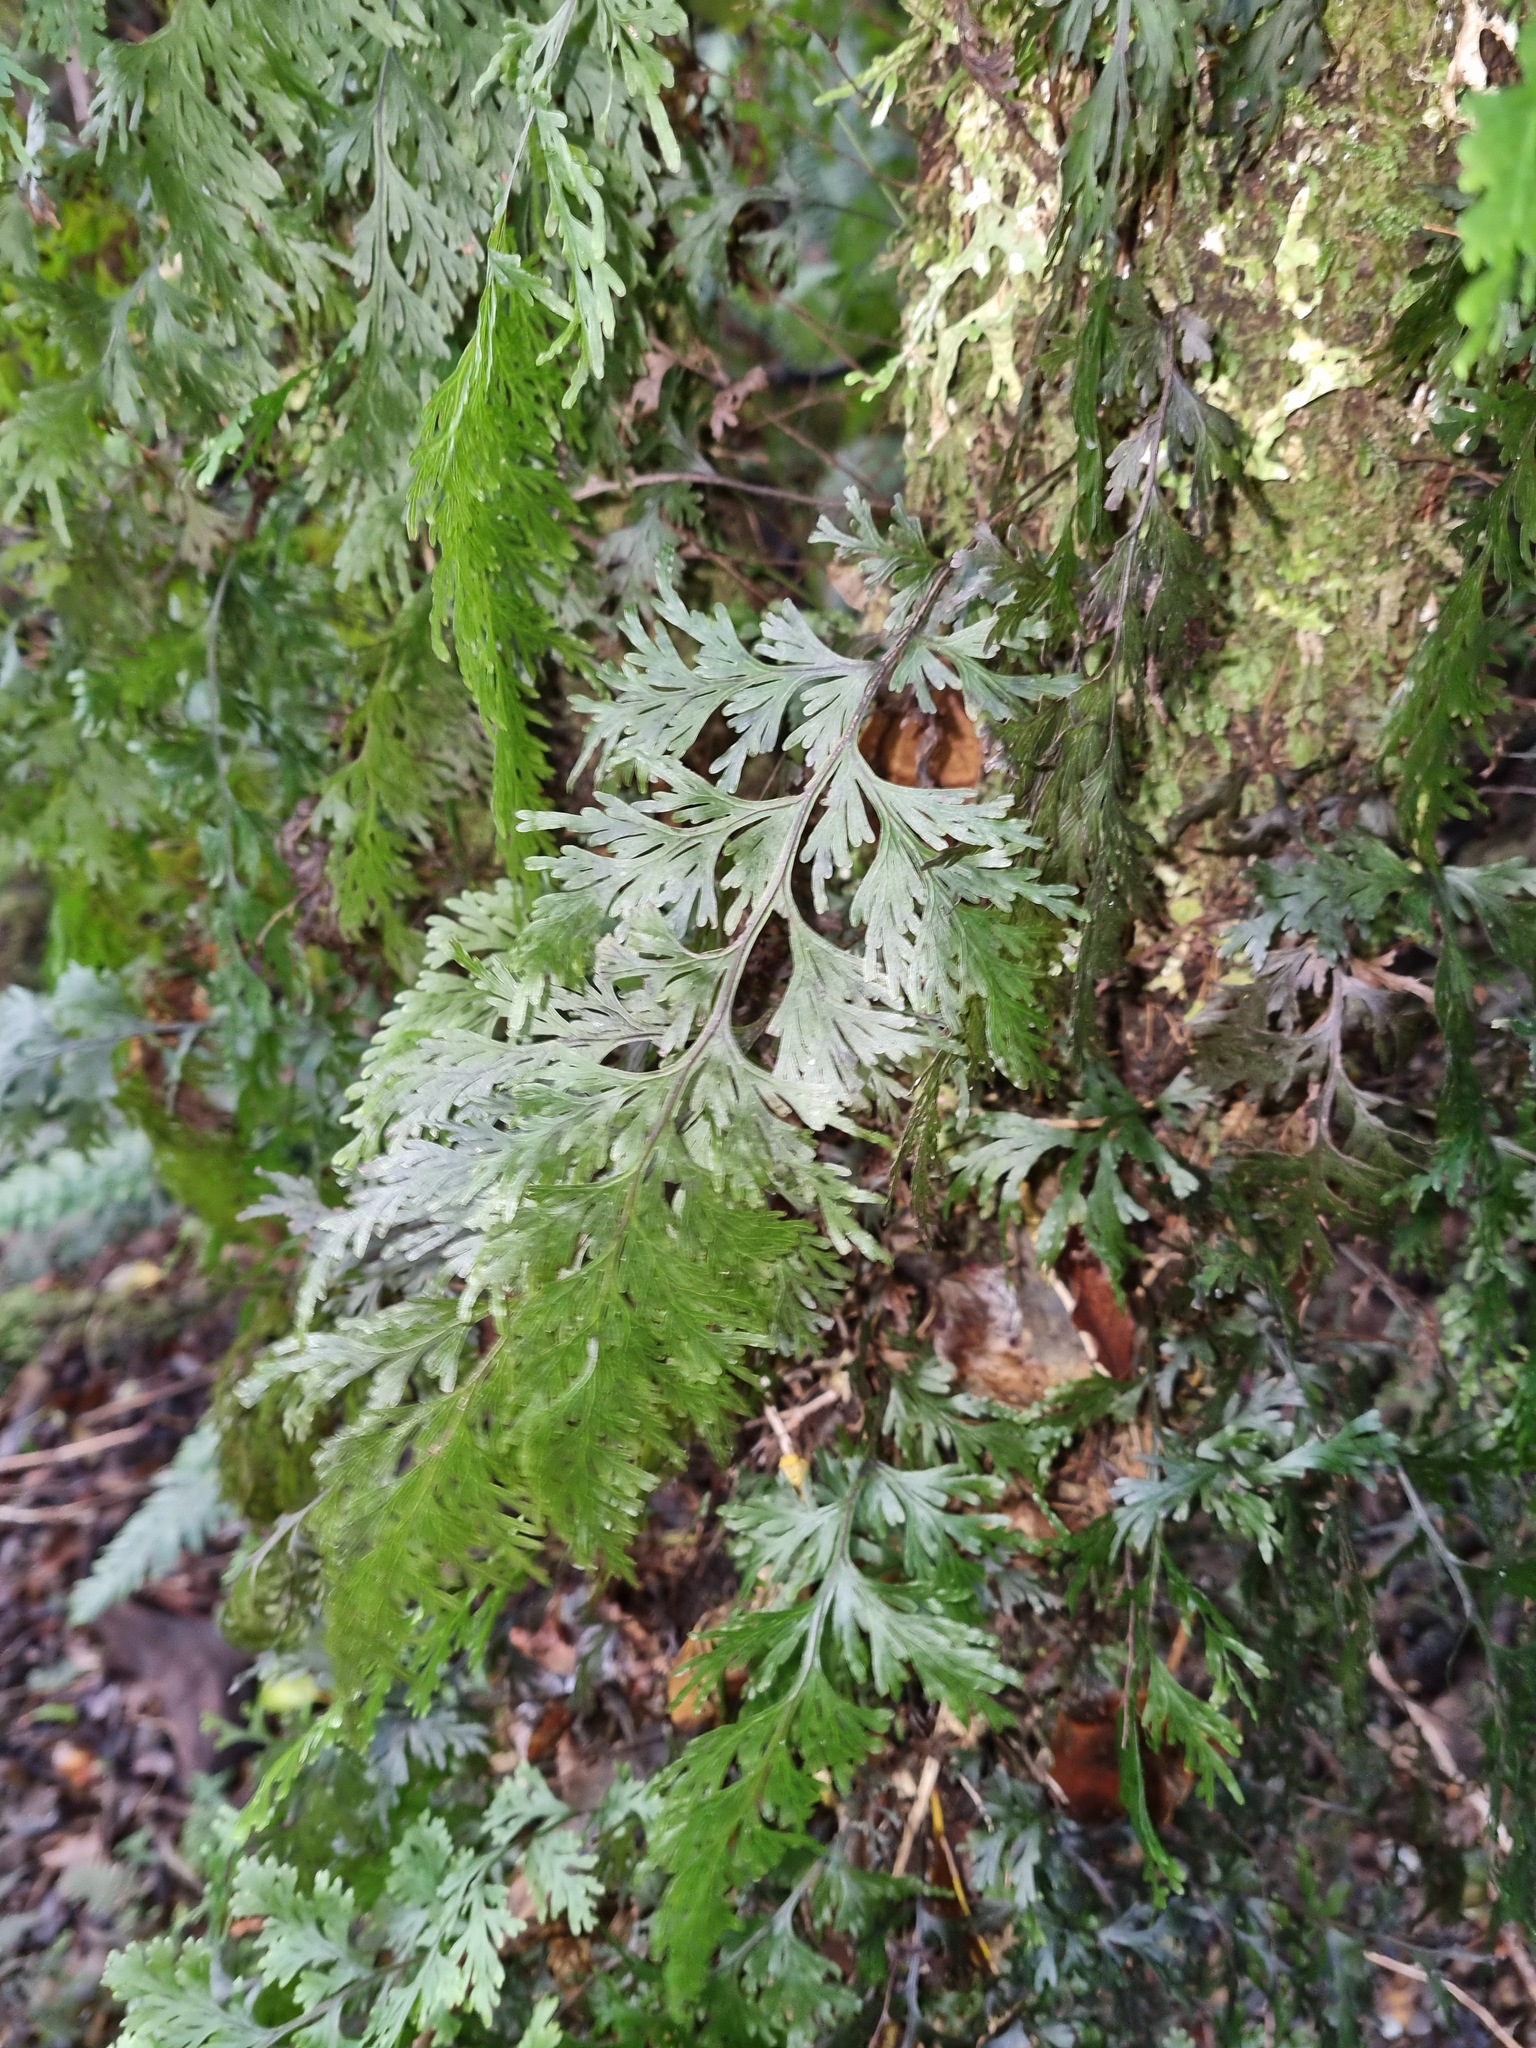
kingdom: Plantae
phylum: Tracheophyta
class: Polypodiopsida
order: Hymenophyllales
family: Hymenophyllaceae
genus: Hymenophyllum
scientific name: Hymenophyllum dilatatum
